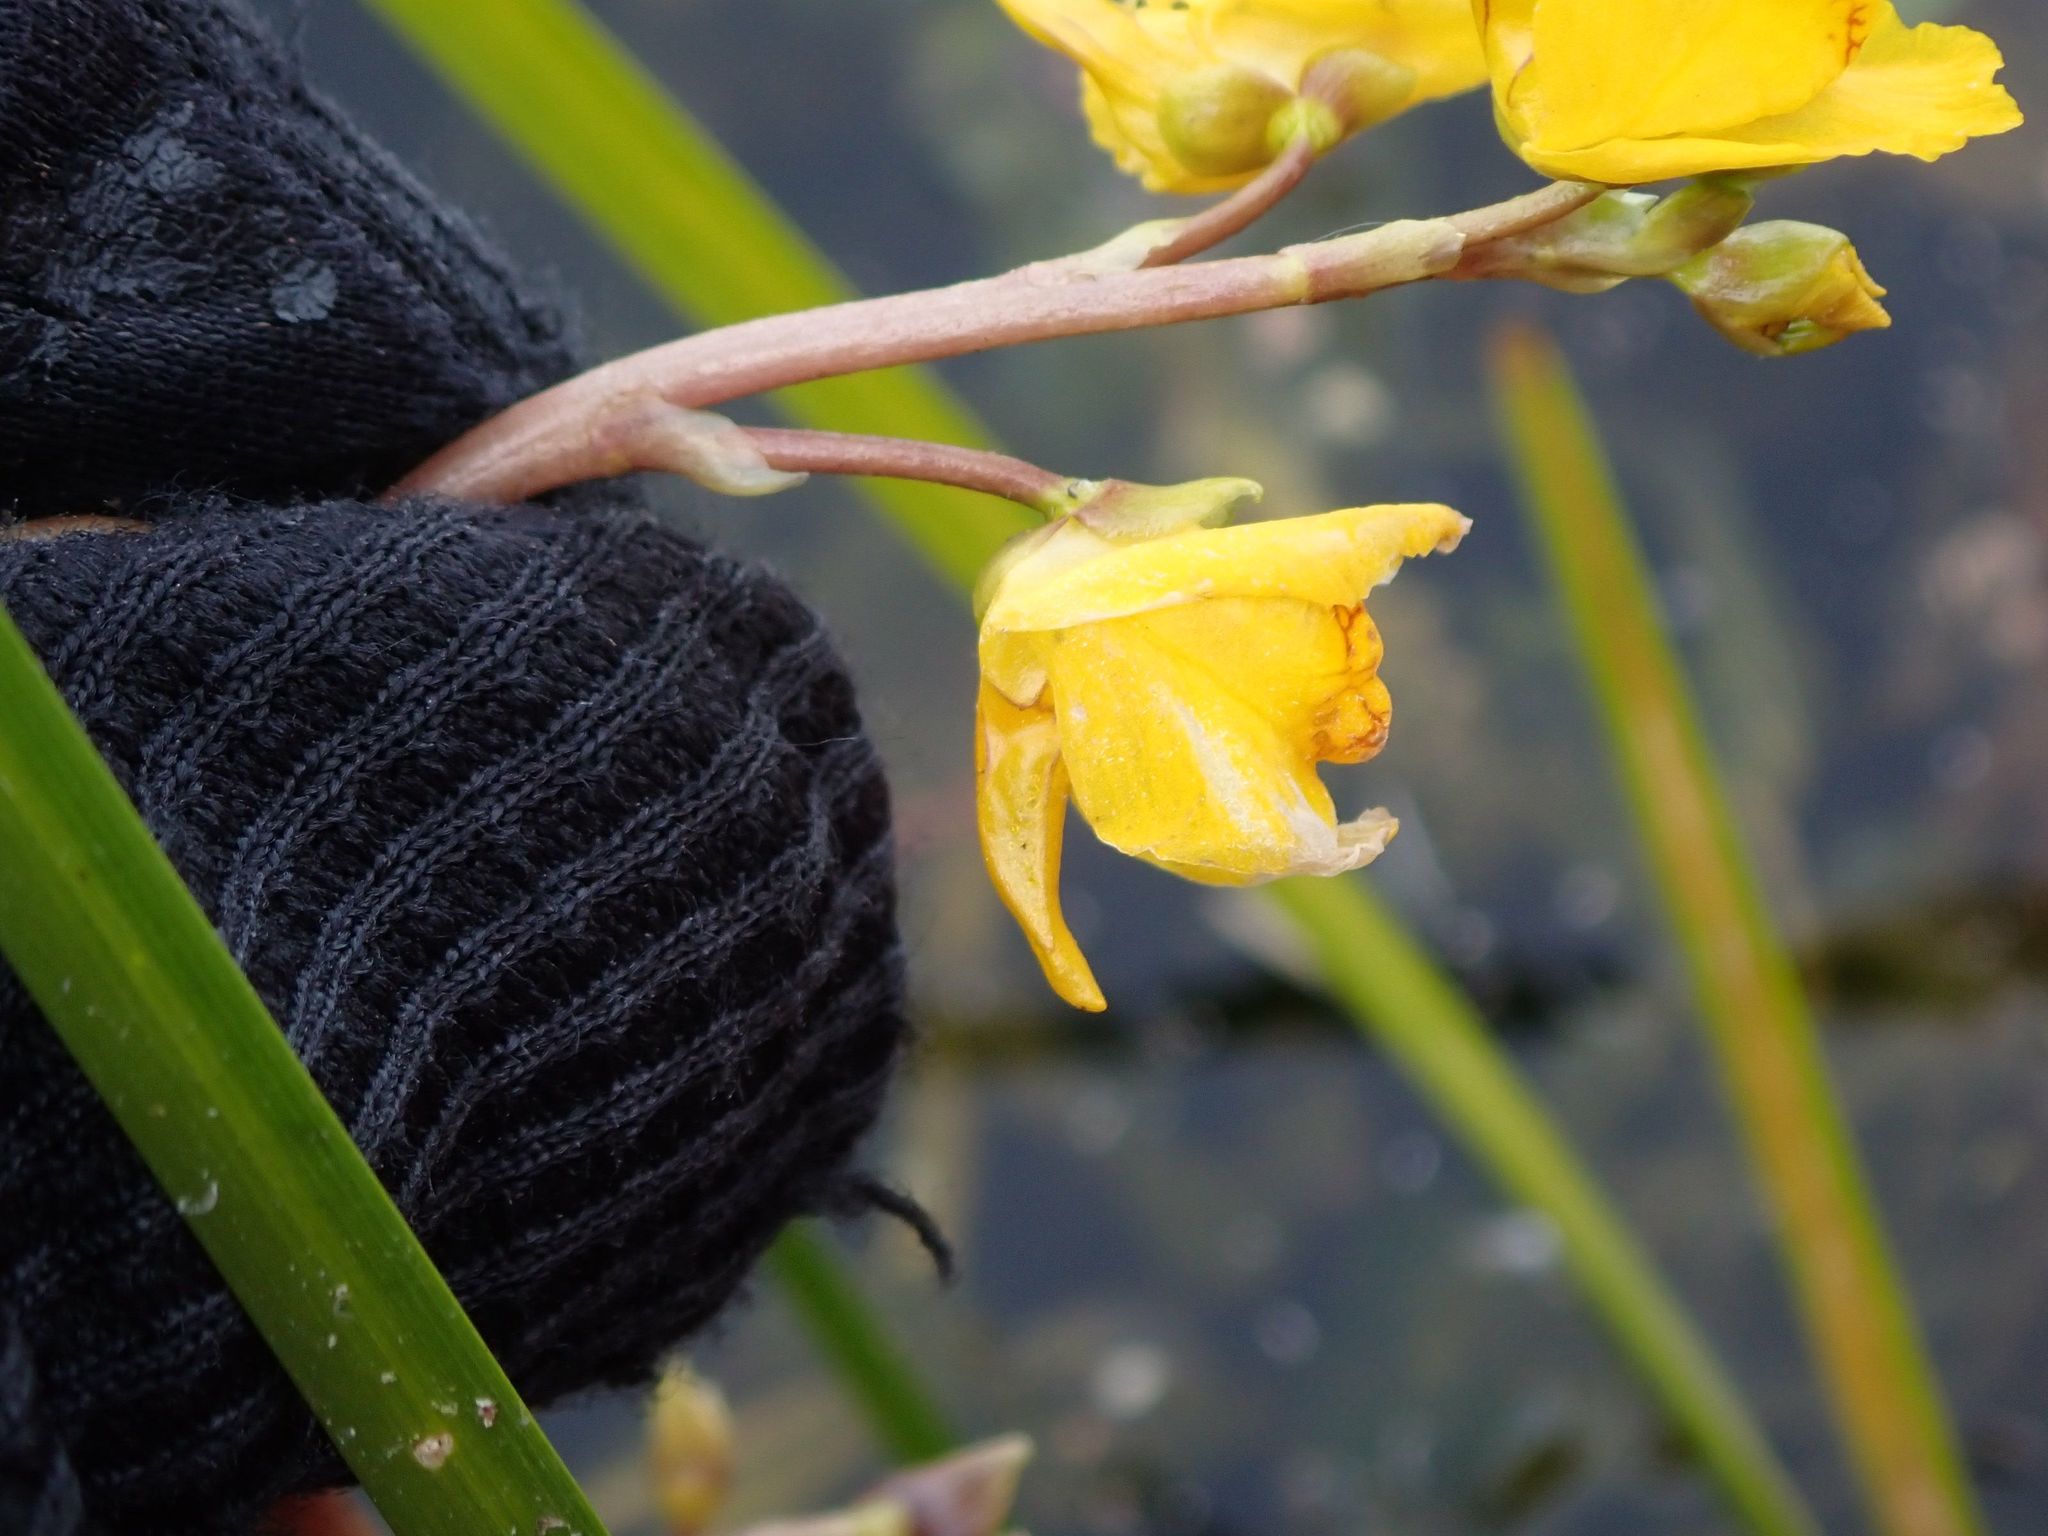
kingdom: Plantae
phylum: Tracheophyta
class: Magnoliopsida
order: Lamiales
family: Lentibulariaceae
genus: Utricularia
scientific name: Utricularia macrorhiza
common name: Common bladderwort
